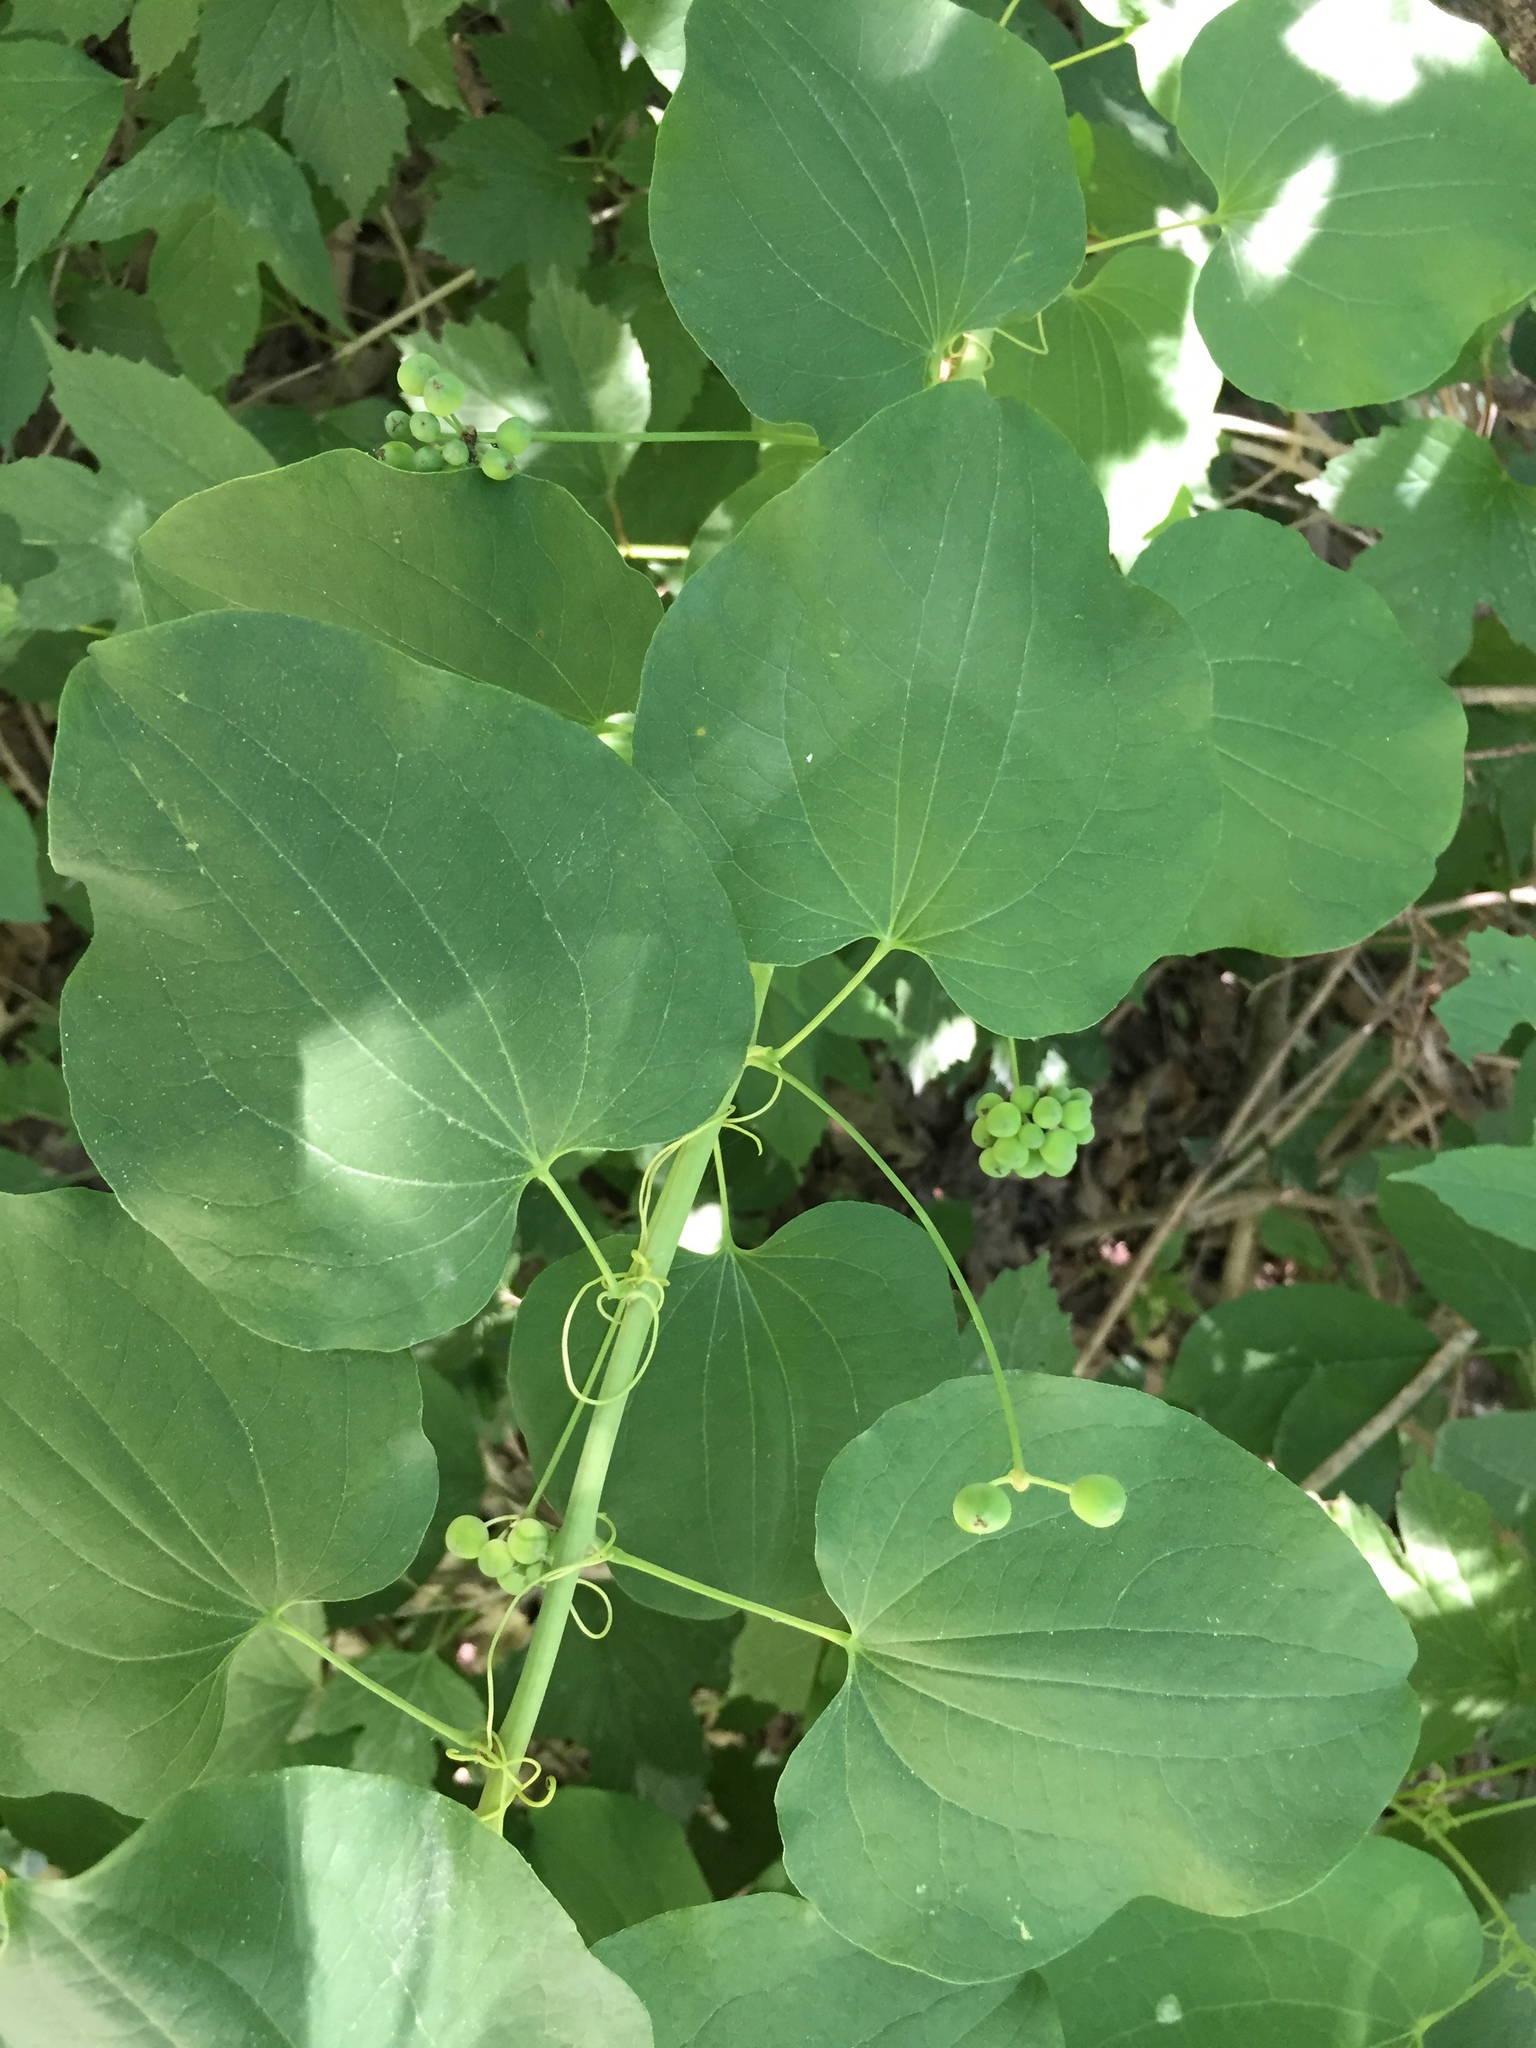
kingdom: Plantae
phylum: Tracheophyta
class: Liliopsida
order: Liliales
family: Smilacaceae
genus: Smilax
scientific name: Smilax lasioneura
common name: Blue ridge carrionflower
